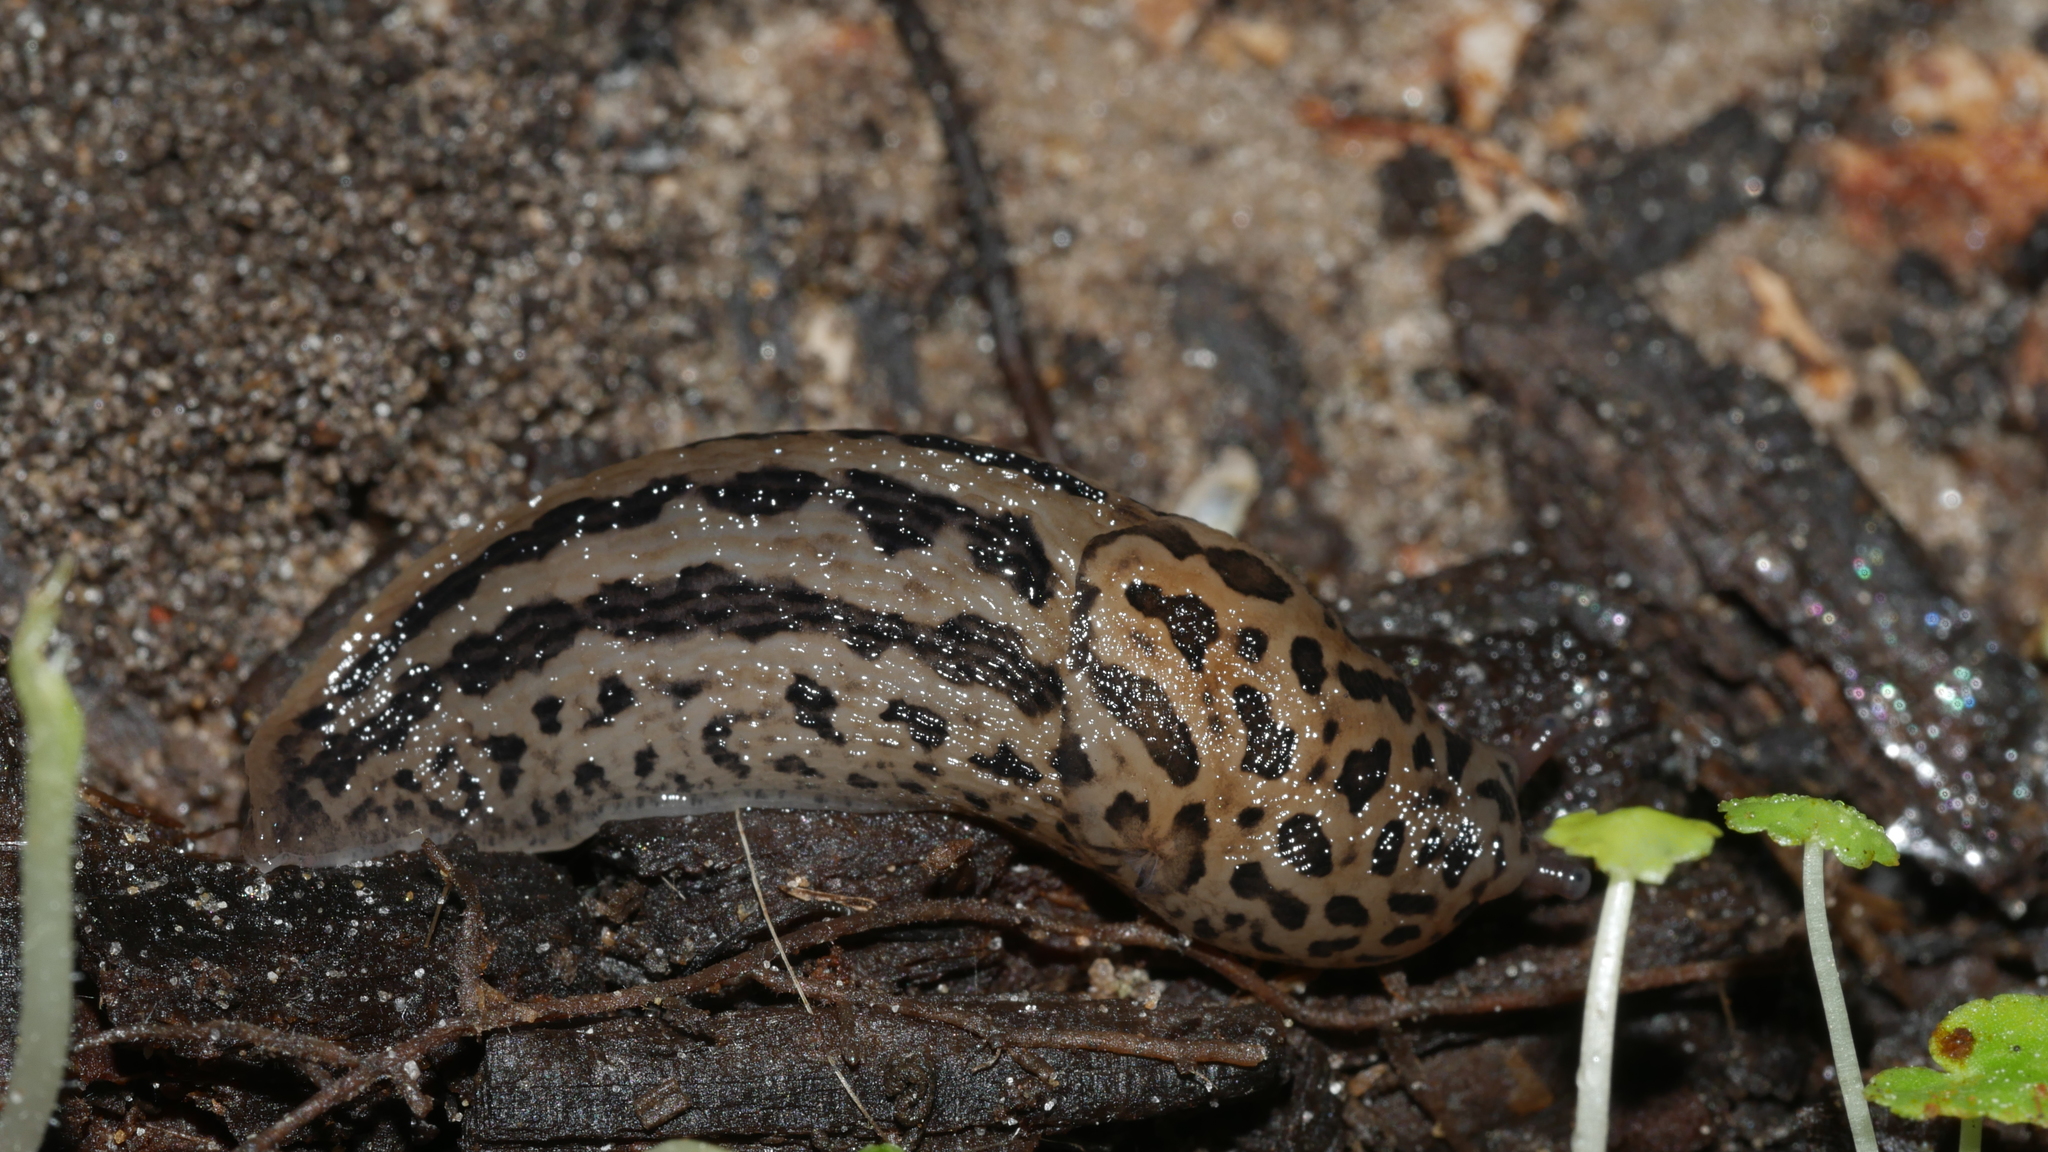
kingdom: Animalia
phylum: Mollusca
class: Gastropoda
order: Stylommatophora
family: Limacidae
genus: Limax
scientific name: Limax maximus
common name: Great grey slug
